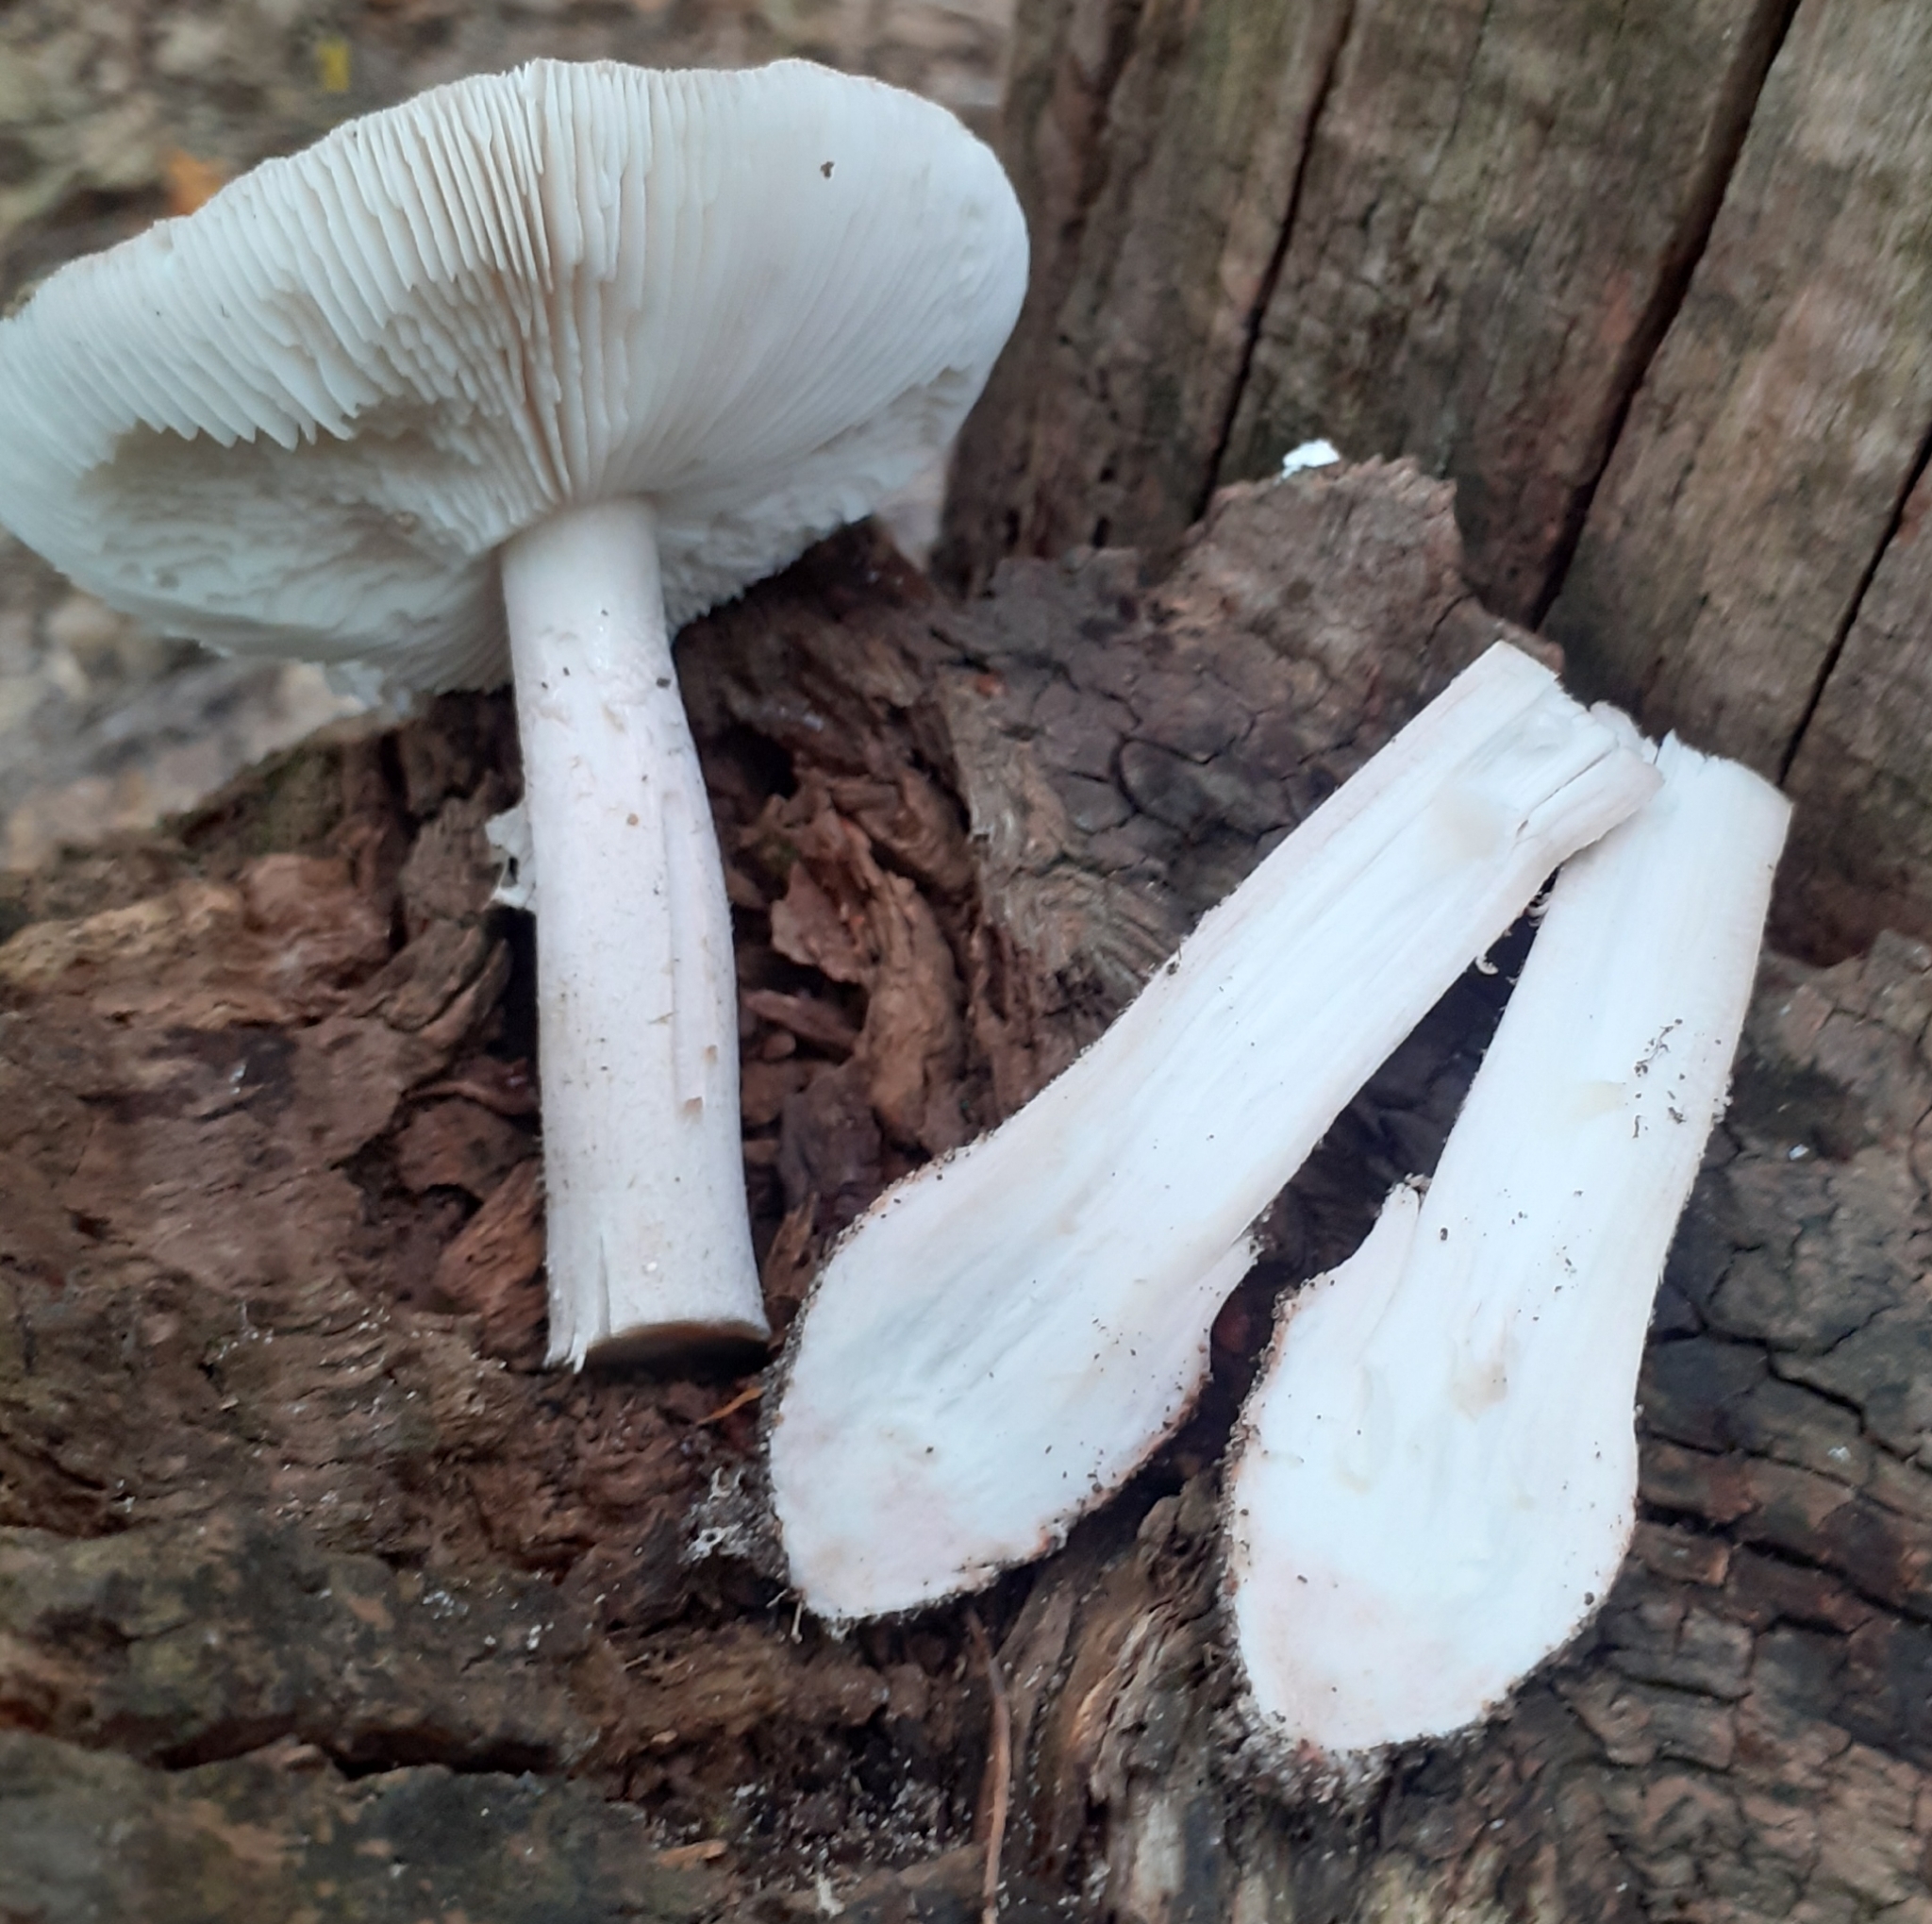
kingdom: Fungi
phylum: Basidiomycota
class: Agaricomycetes
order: Agaricales
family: Amanitaceae
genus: Amanita
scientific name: Amanita rubescens
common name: Blusher
